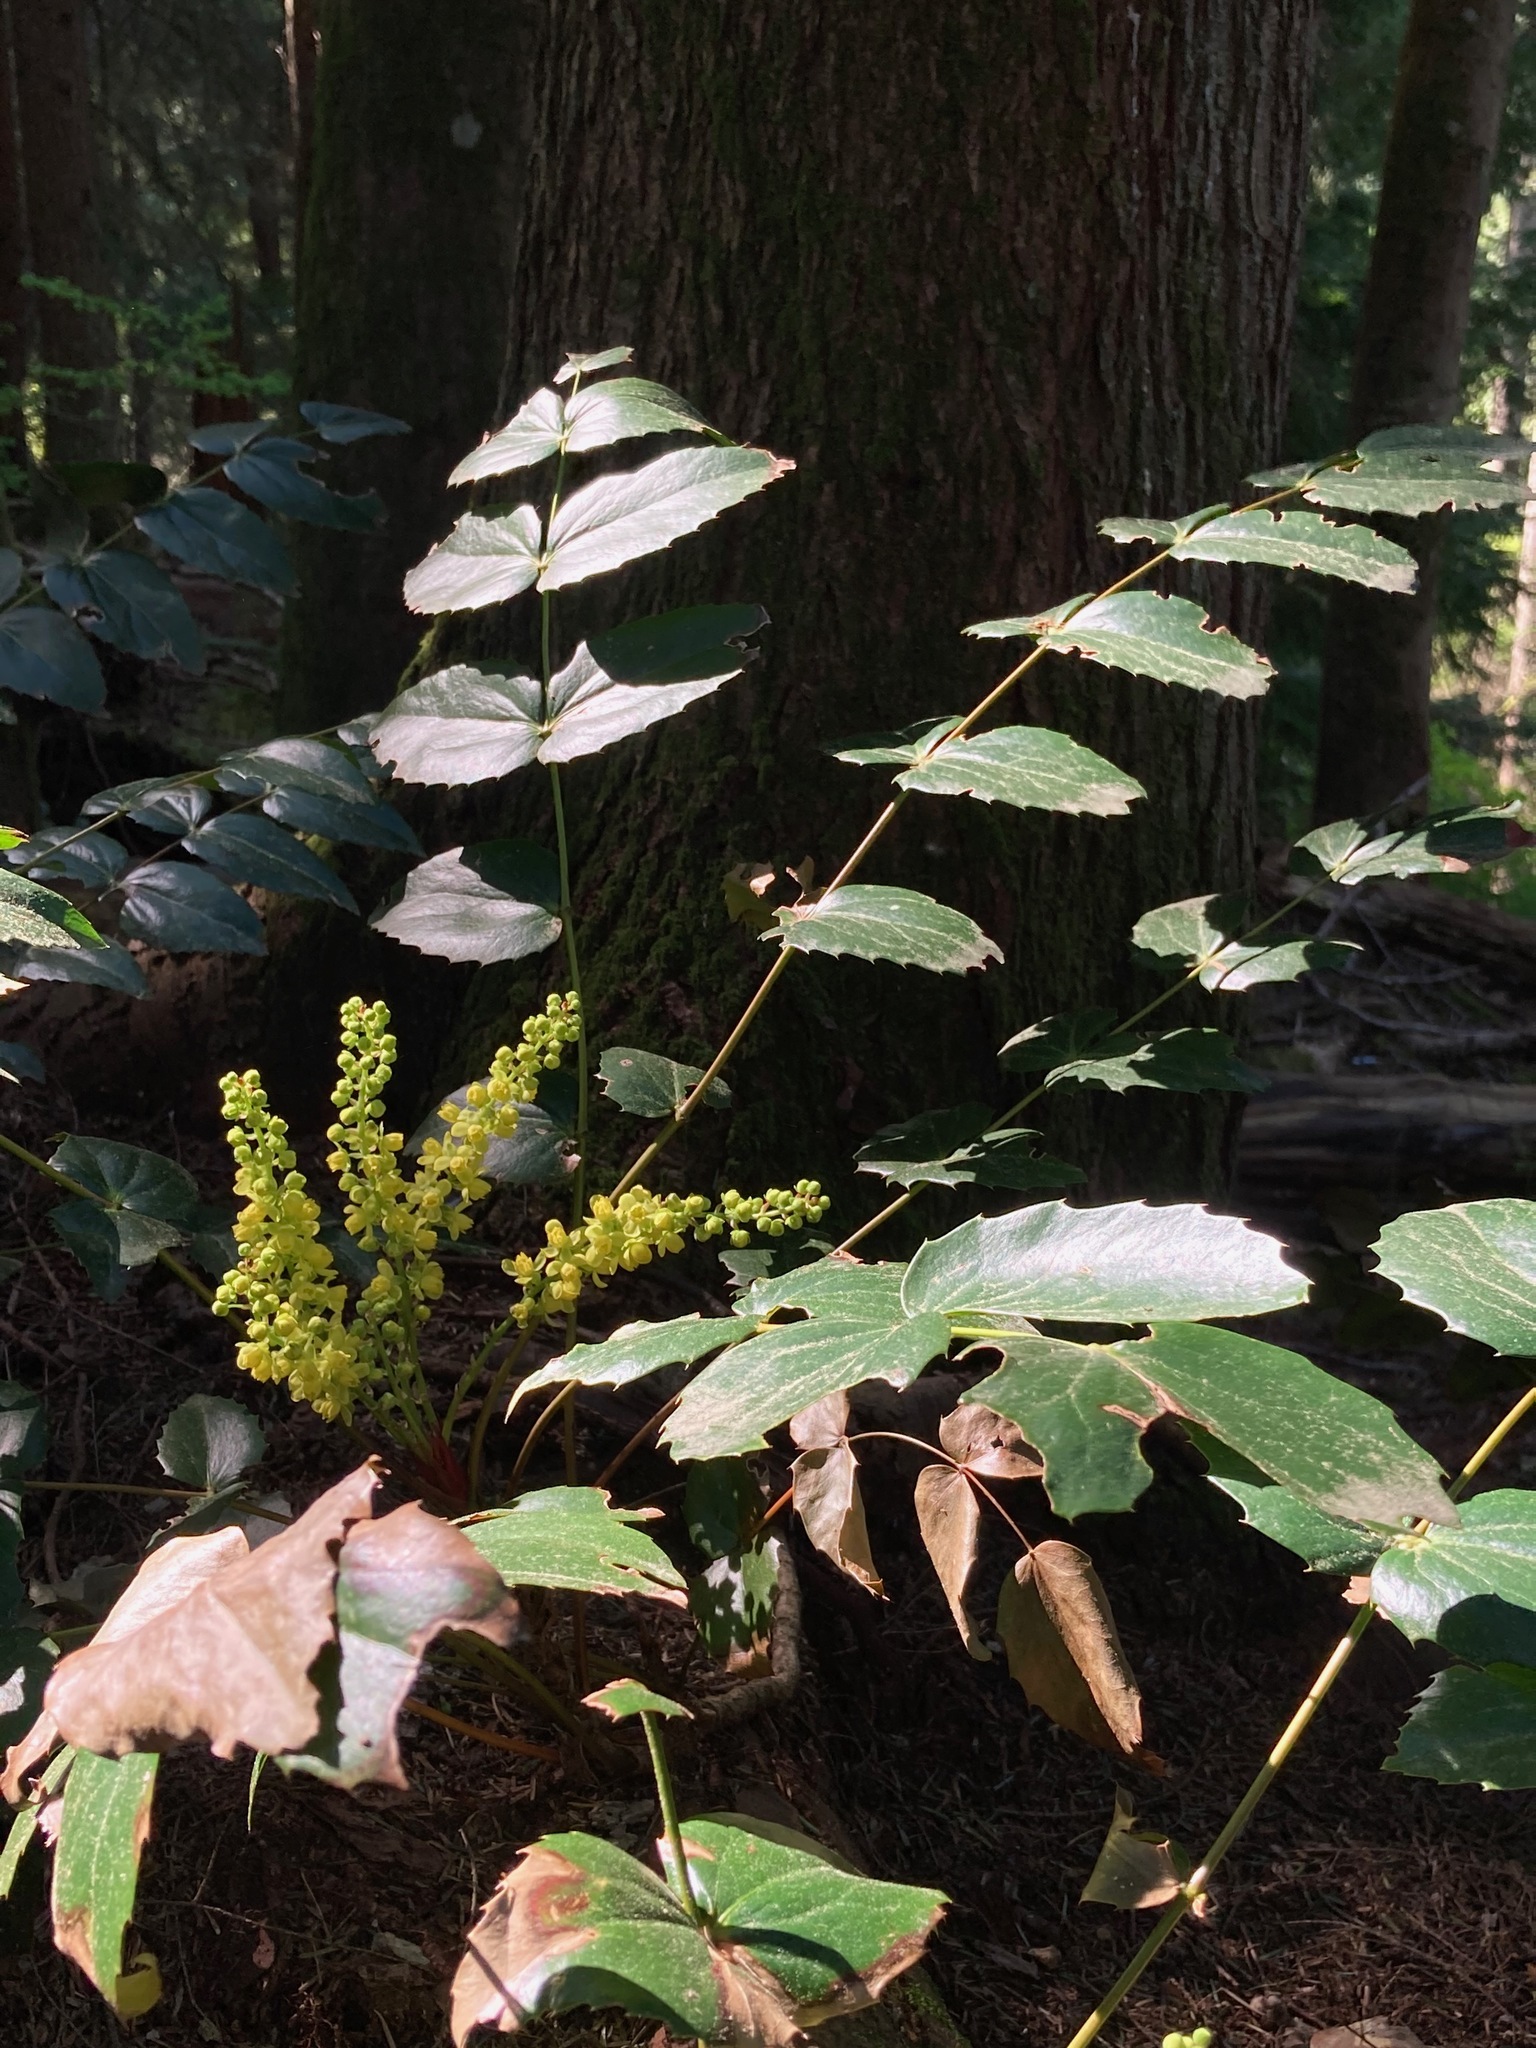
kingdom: Plantae
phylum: Tracheophyta
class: Magnoliopsida
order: Ranunculales
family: Berberidaceae
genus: Mahonia
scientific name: Mahonia nervosa
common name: Cascade oregon-grape
